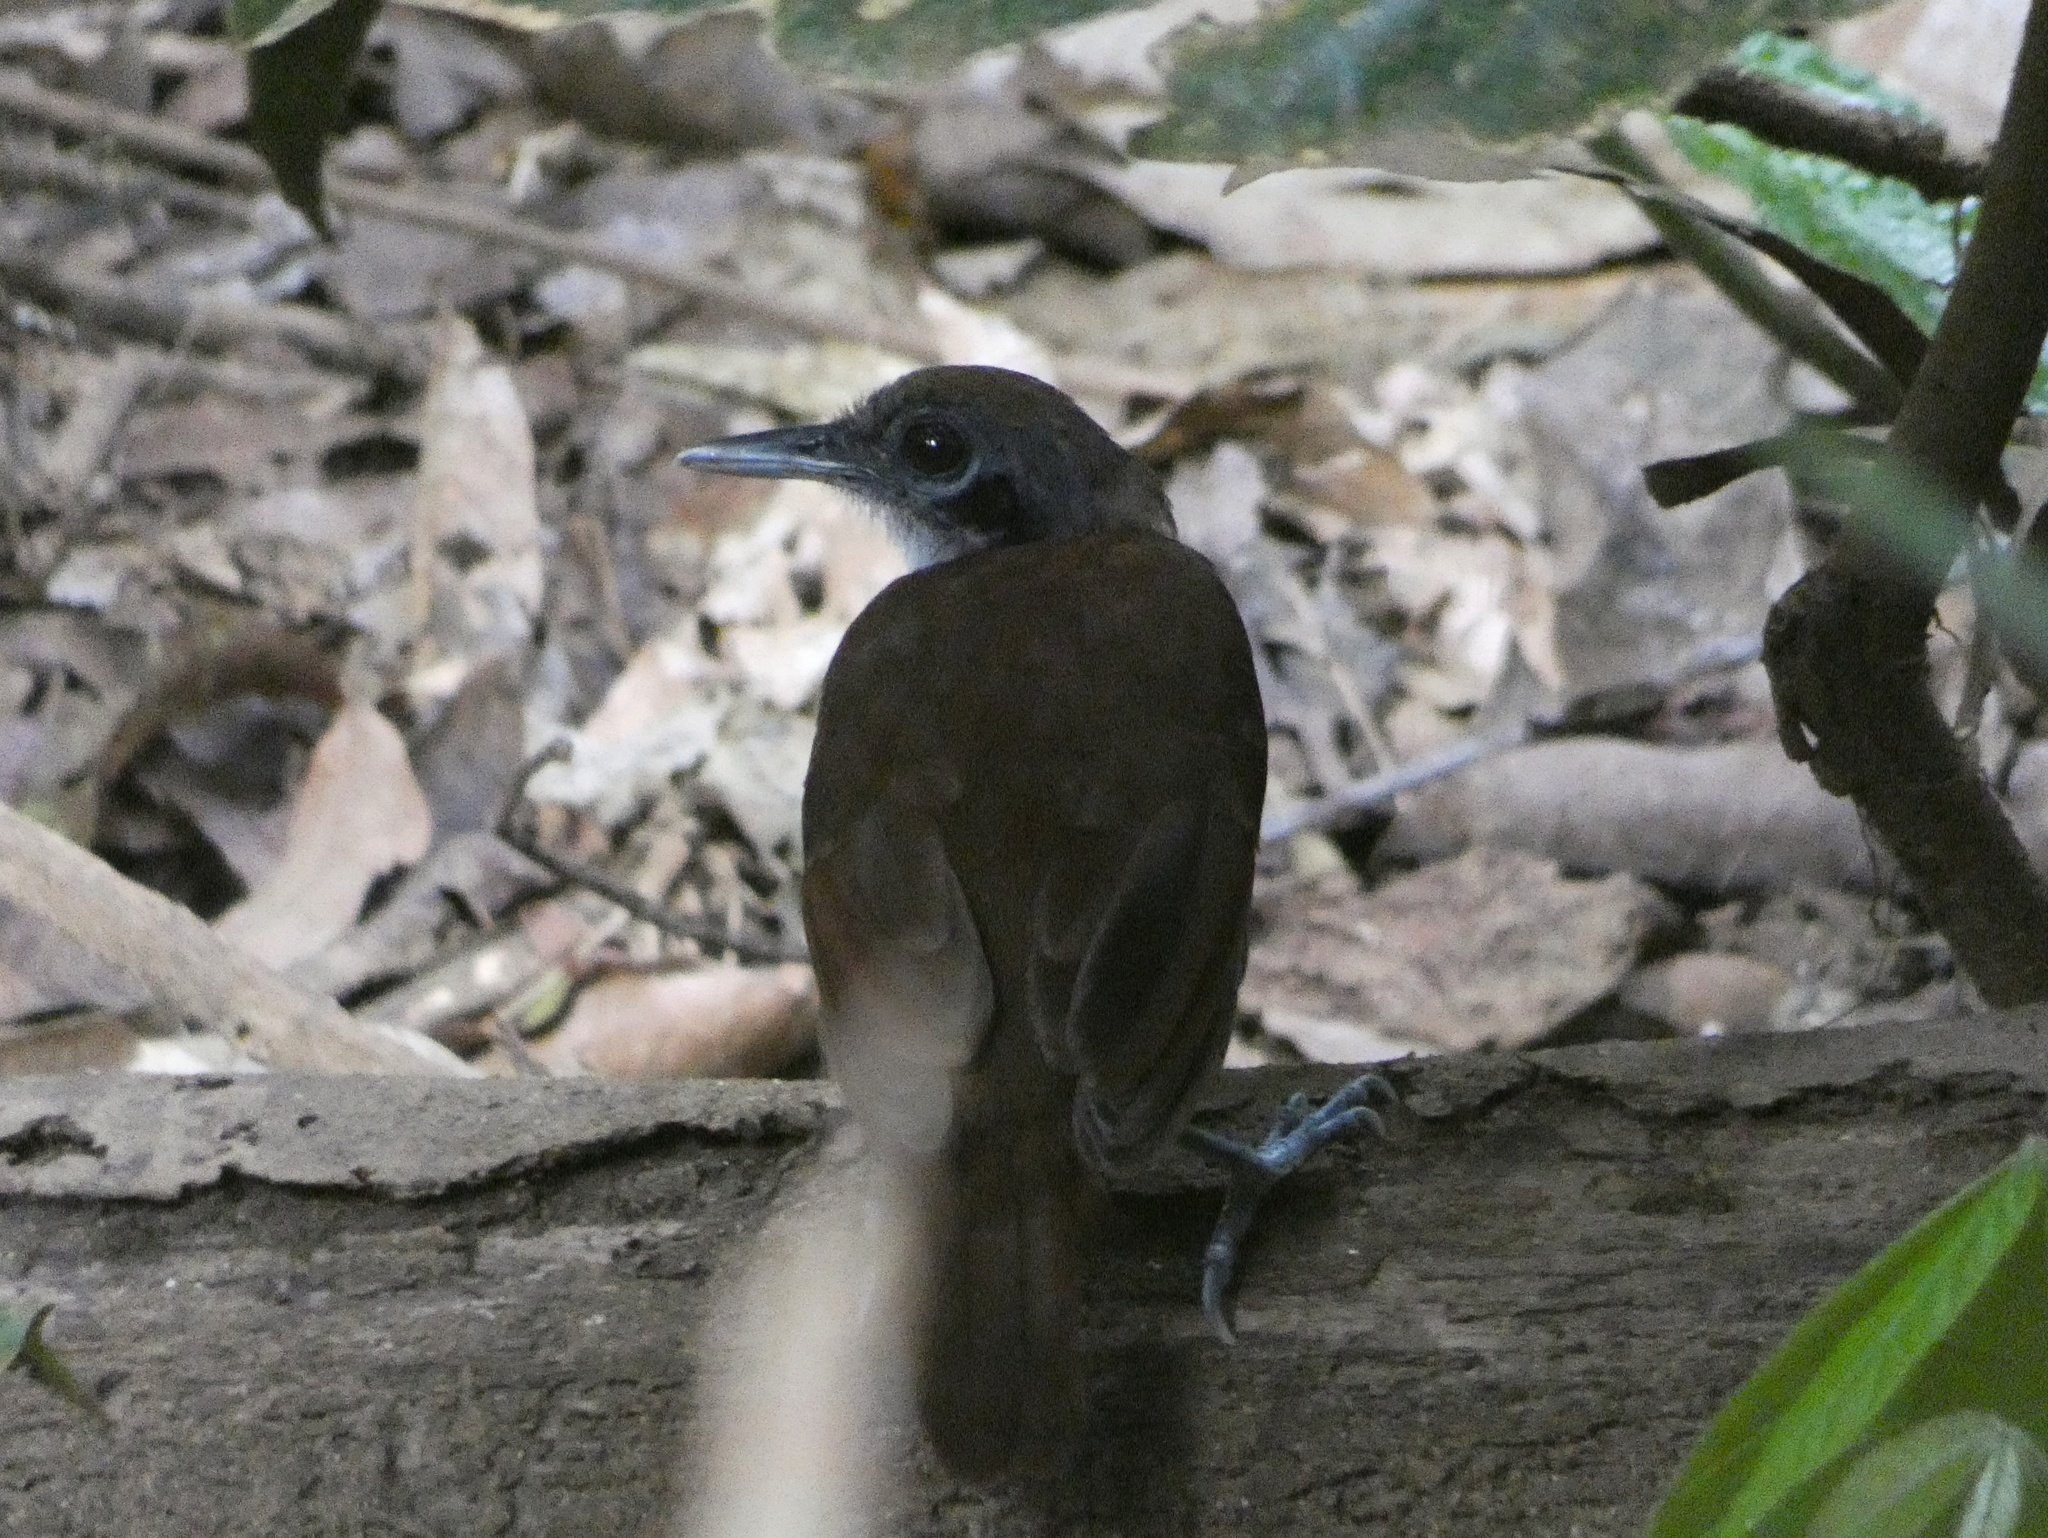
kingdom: Animalia
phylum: Chordata
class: Aves
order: Passeriformes
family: Thamnophilidae
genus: Gymnopithys
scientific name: Gymnopithys leucaspis
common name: White-cheeked antbird
